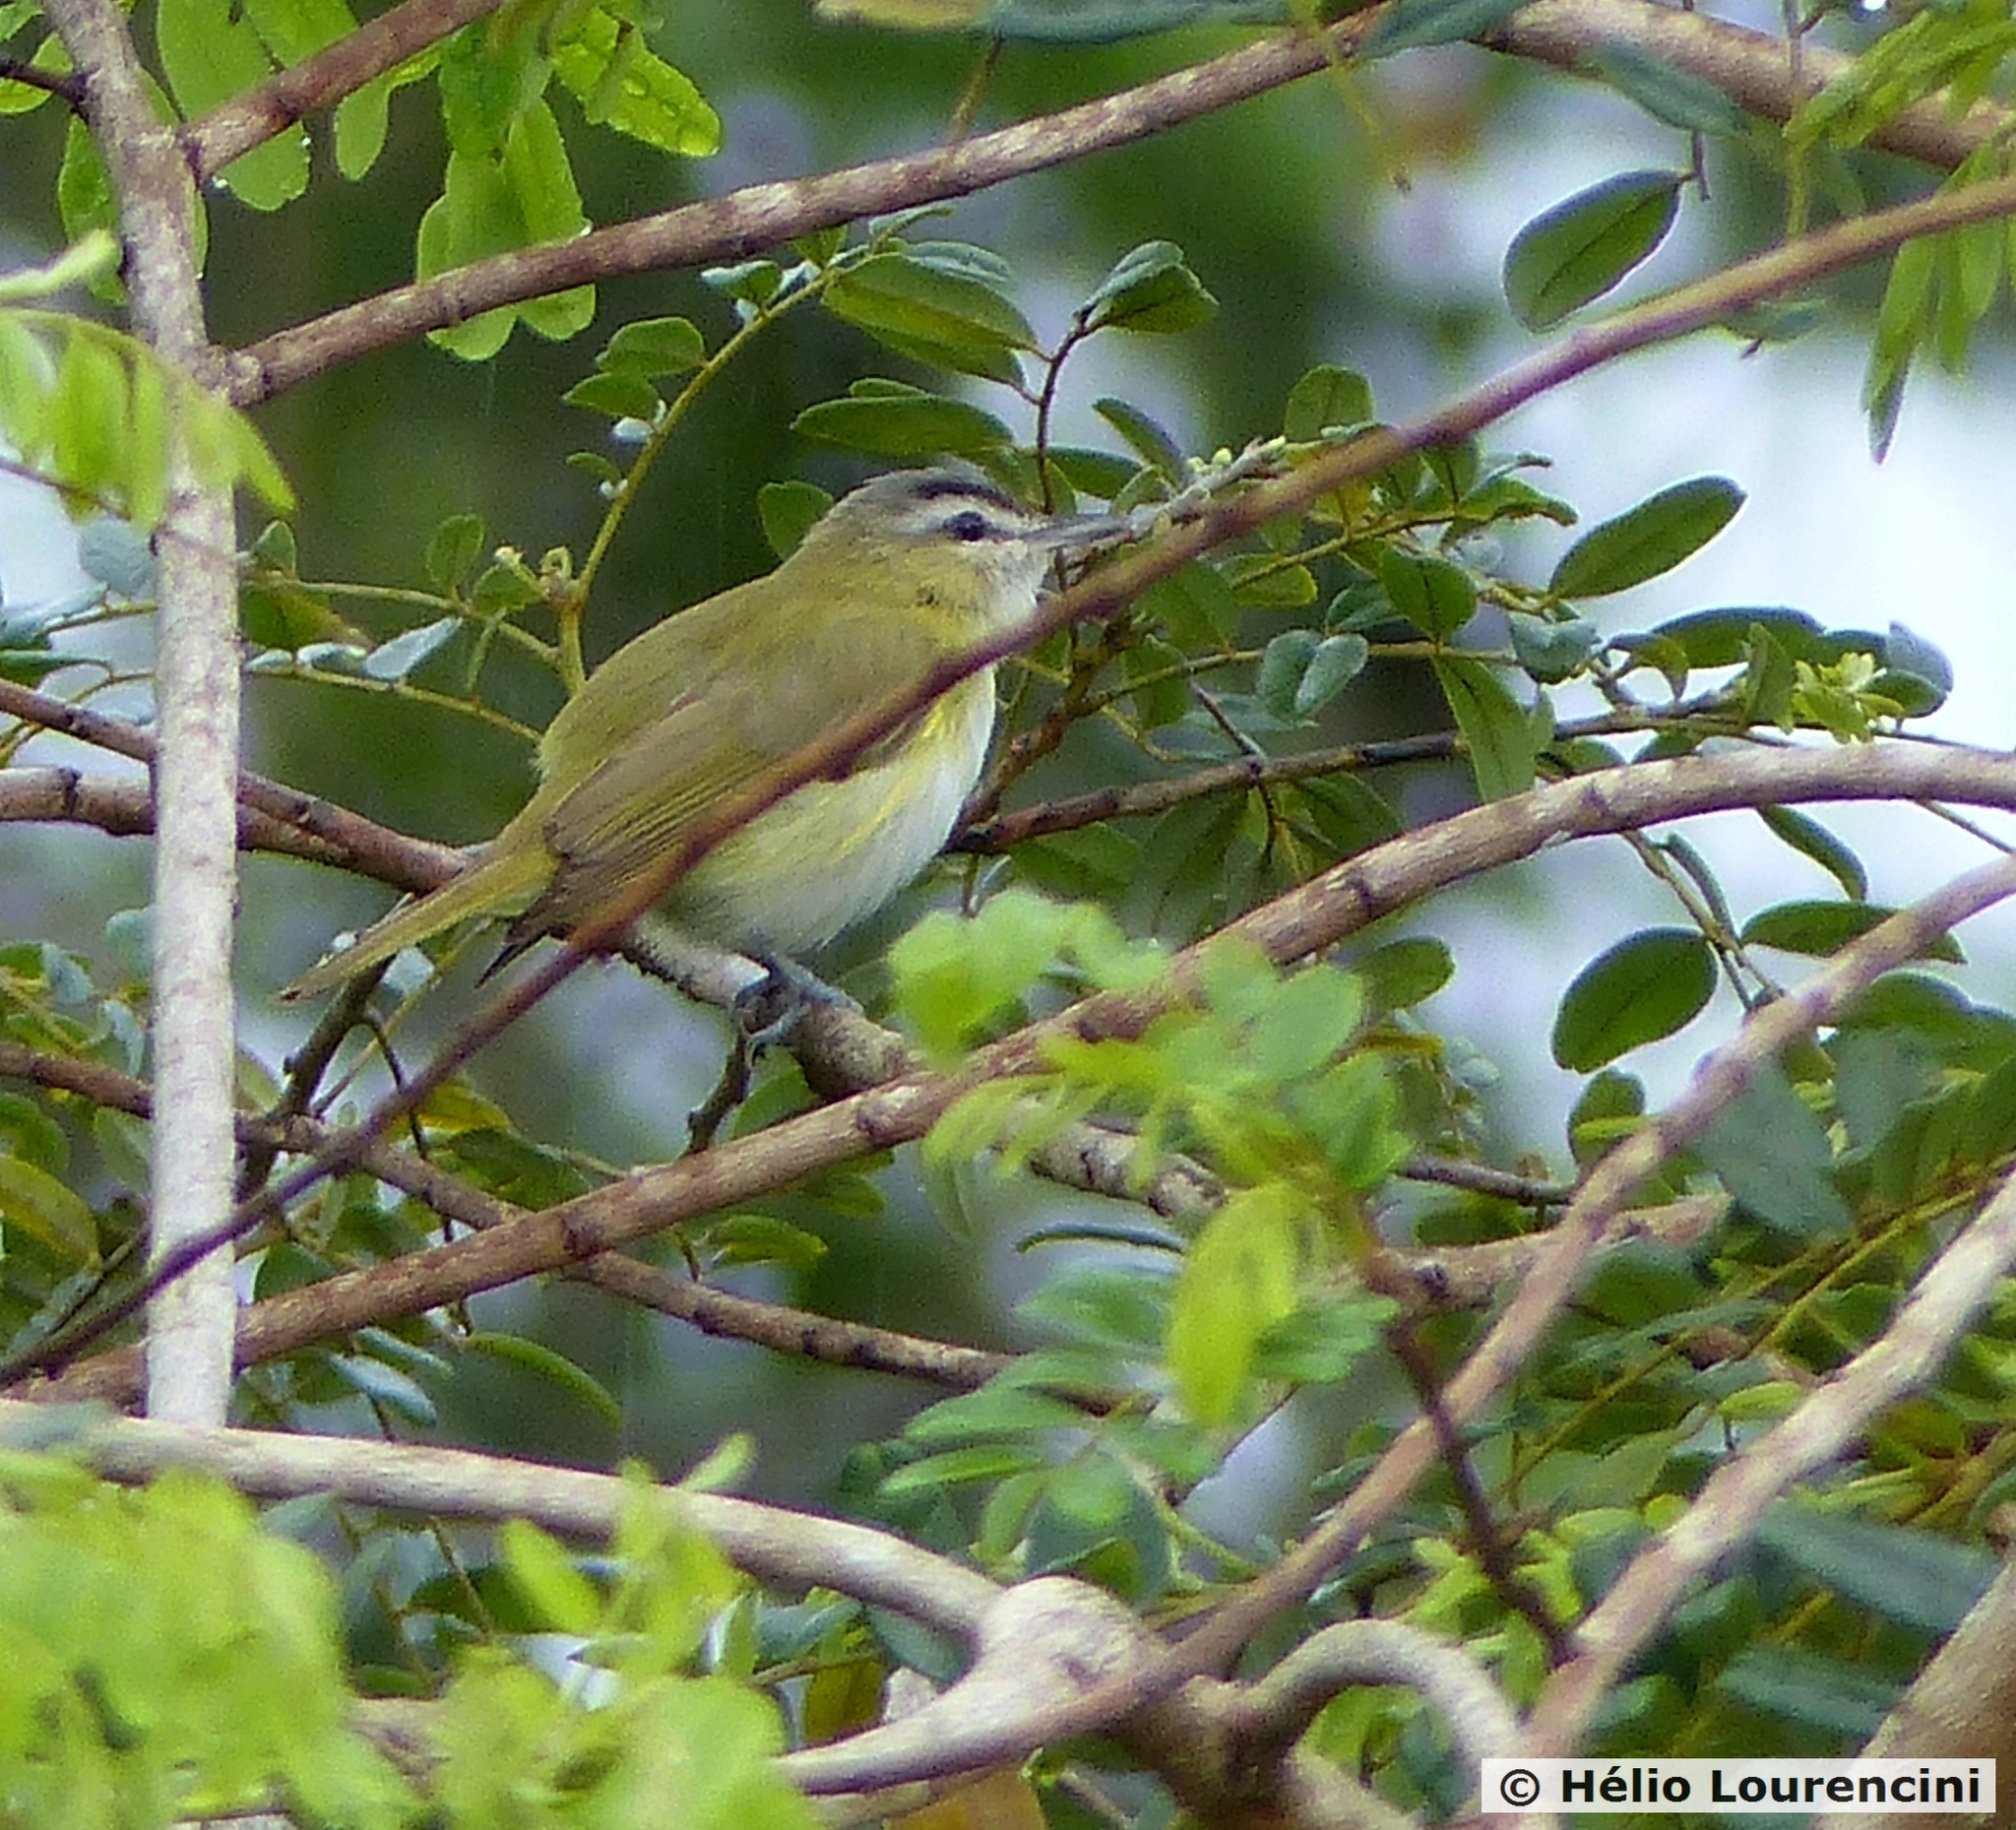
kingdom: Animalia
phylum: Chordata
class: Aves
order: Passeriformes
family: Vireonidae
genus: Vireo
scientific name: Vireo olivaceus
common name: Red-eyed vireo
